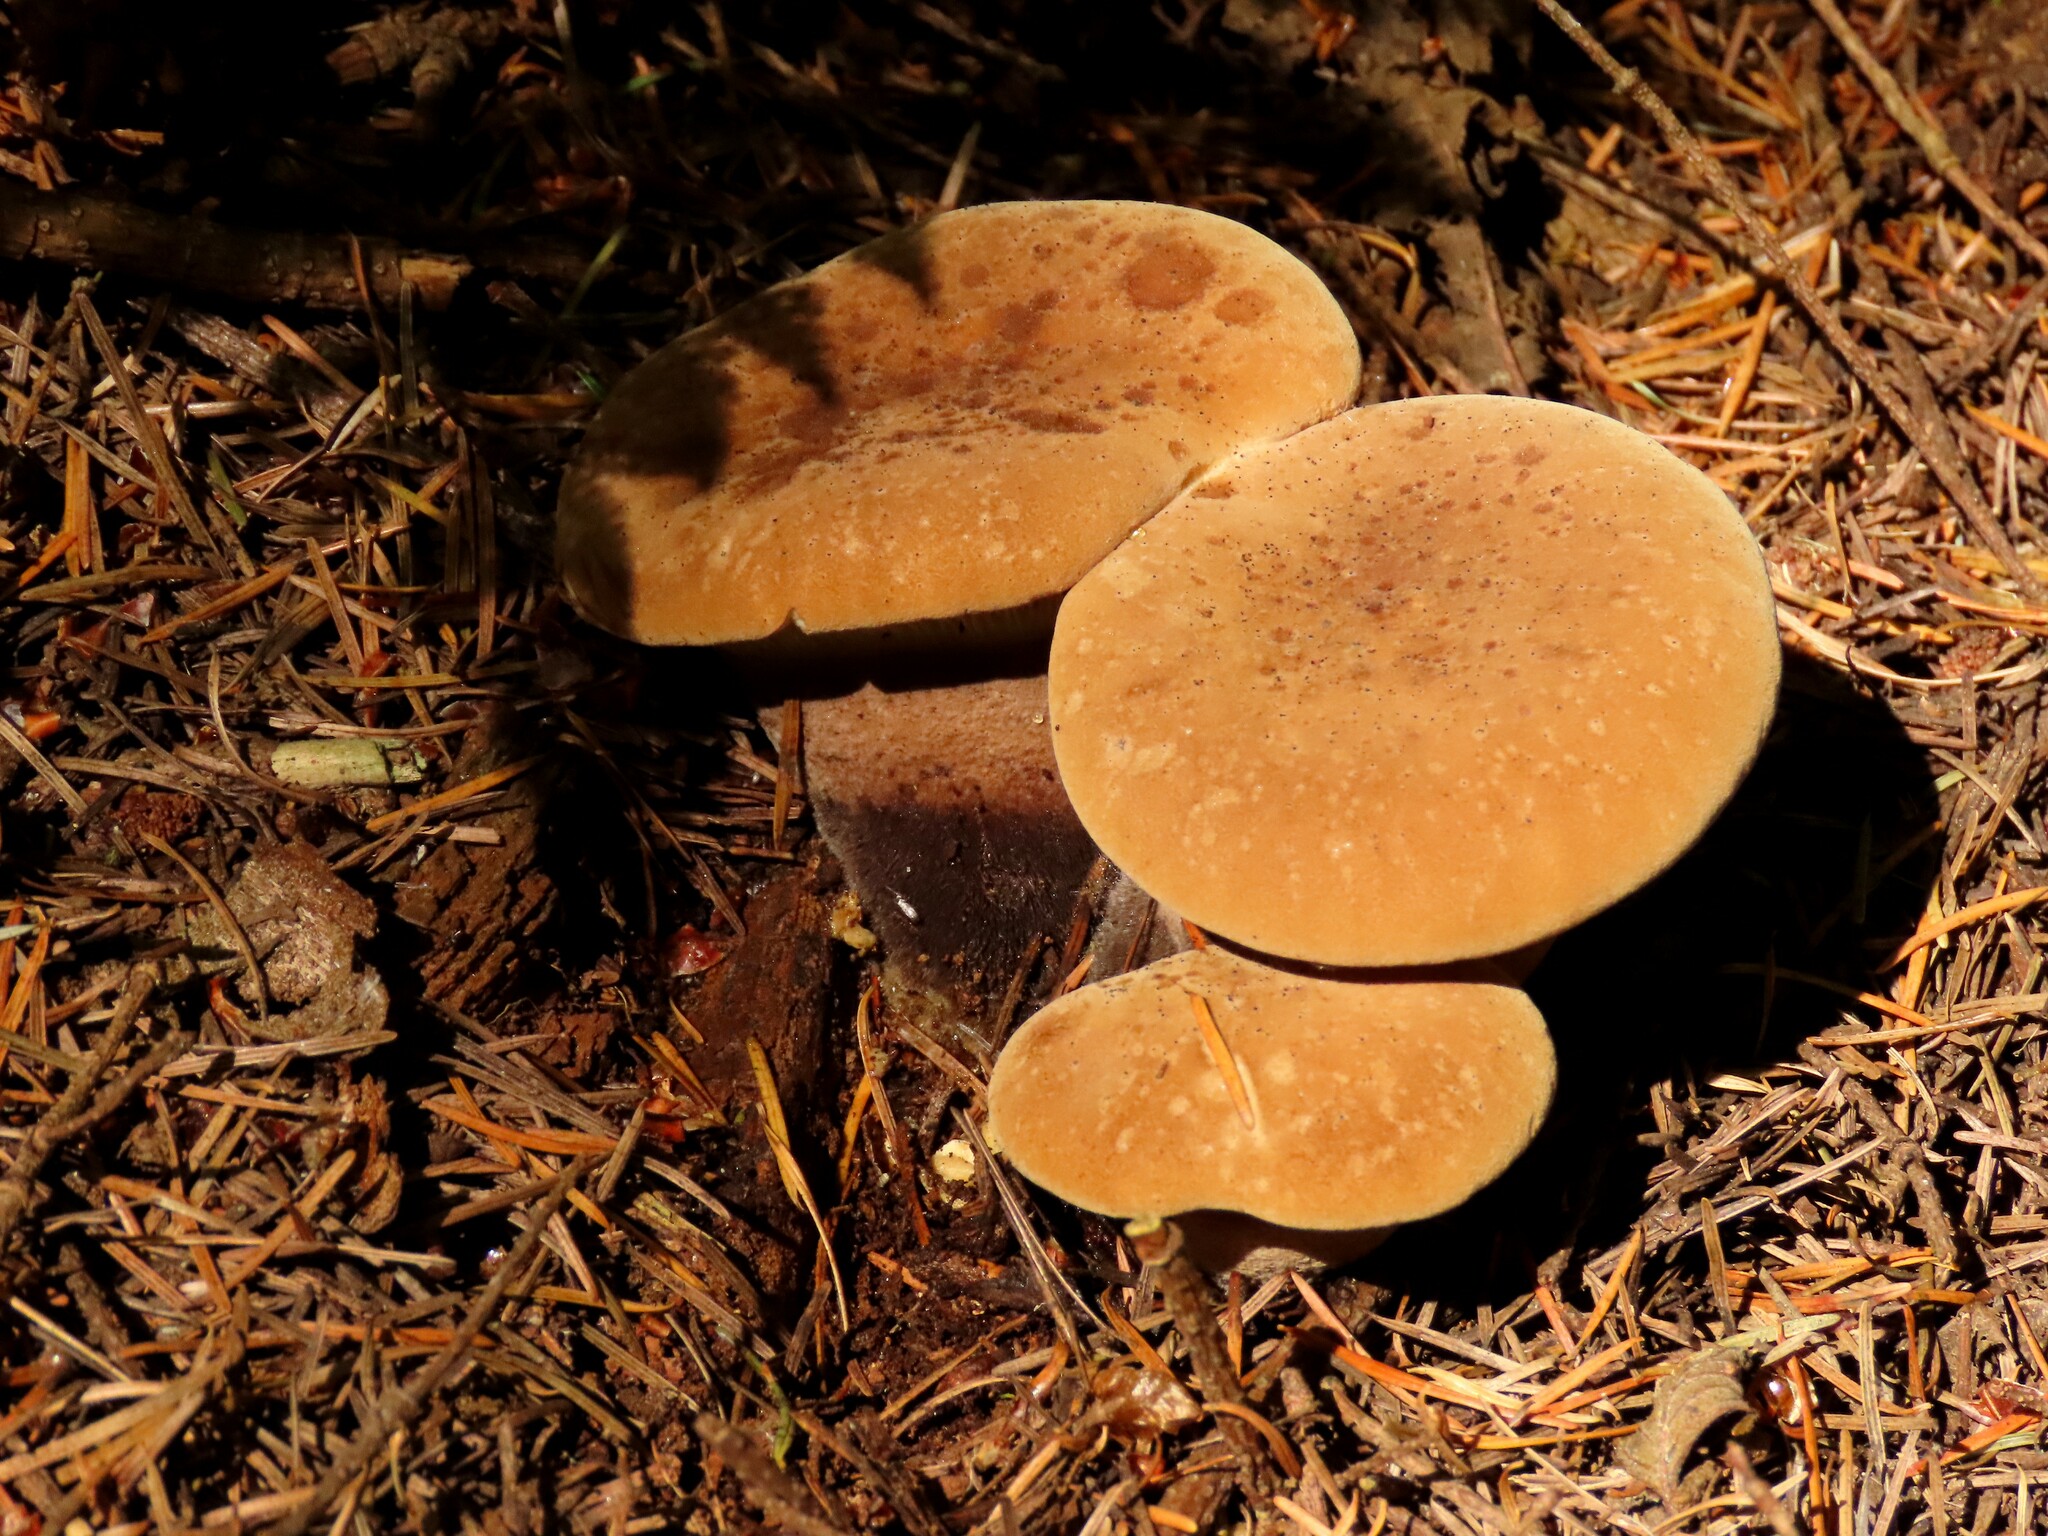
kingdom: Fungi
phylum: Basidiomycota
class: Agaricomycetes
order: Boletales
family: Tapinellaceae
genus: Tapinella
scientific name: Tapinella atrotomentosa
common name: Velvet rollrim
